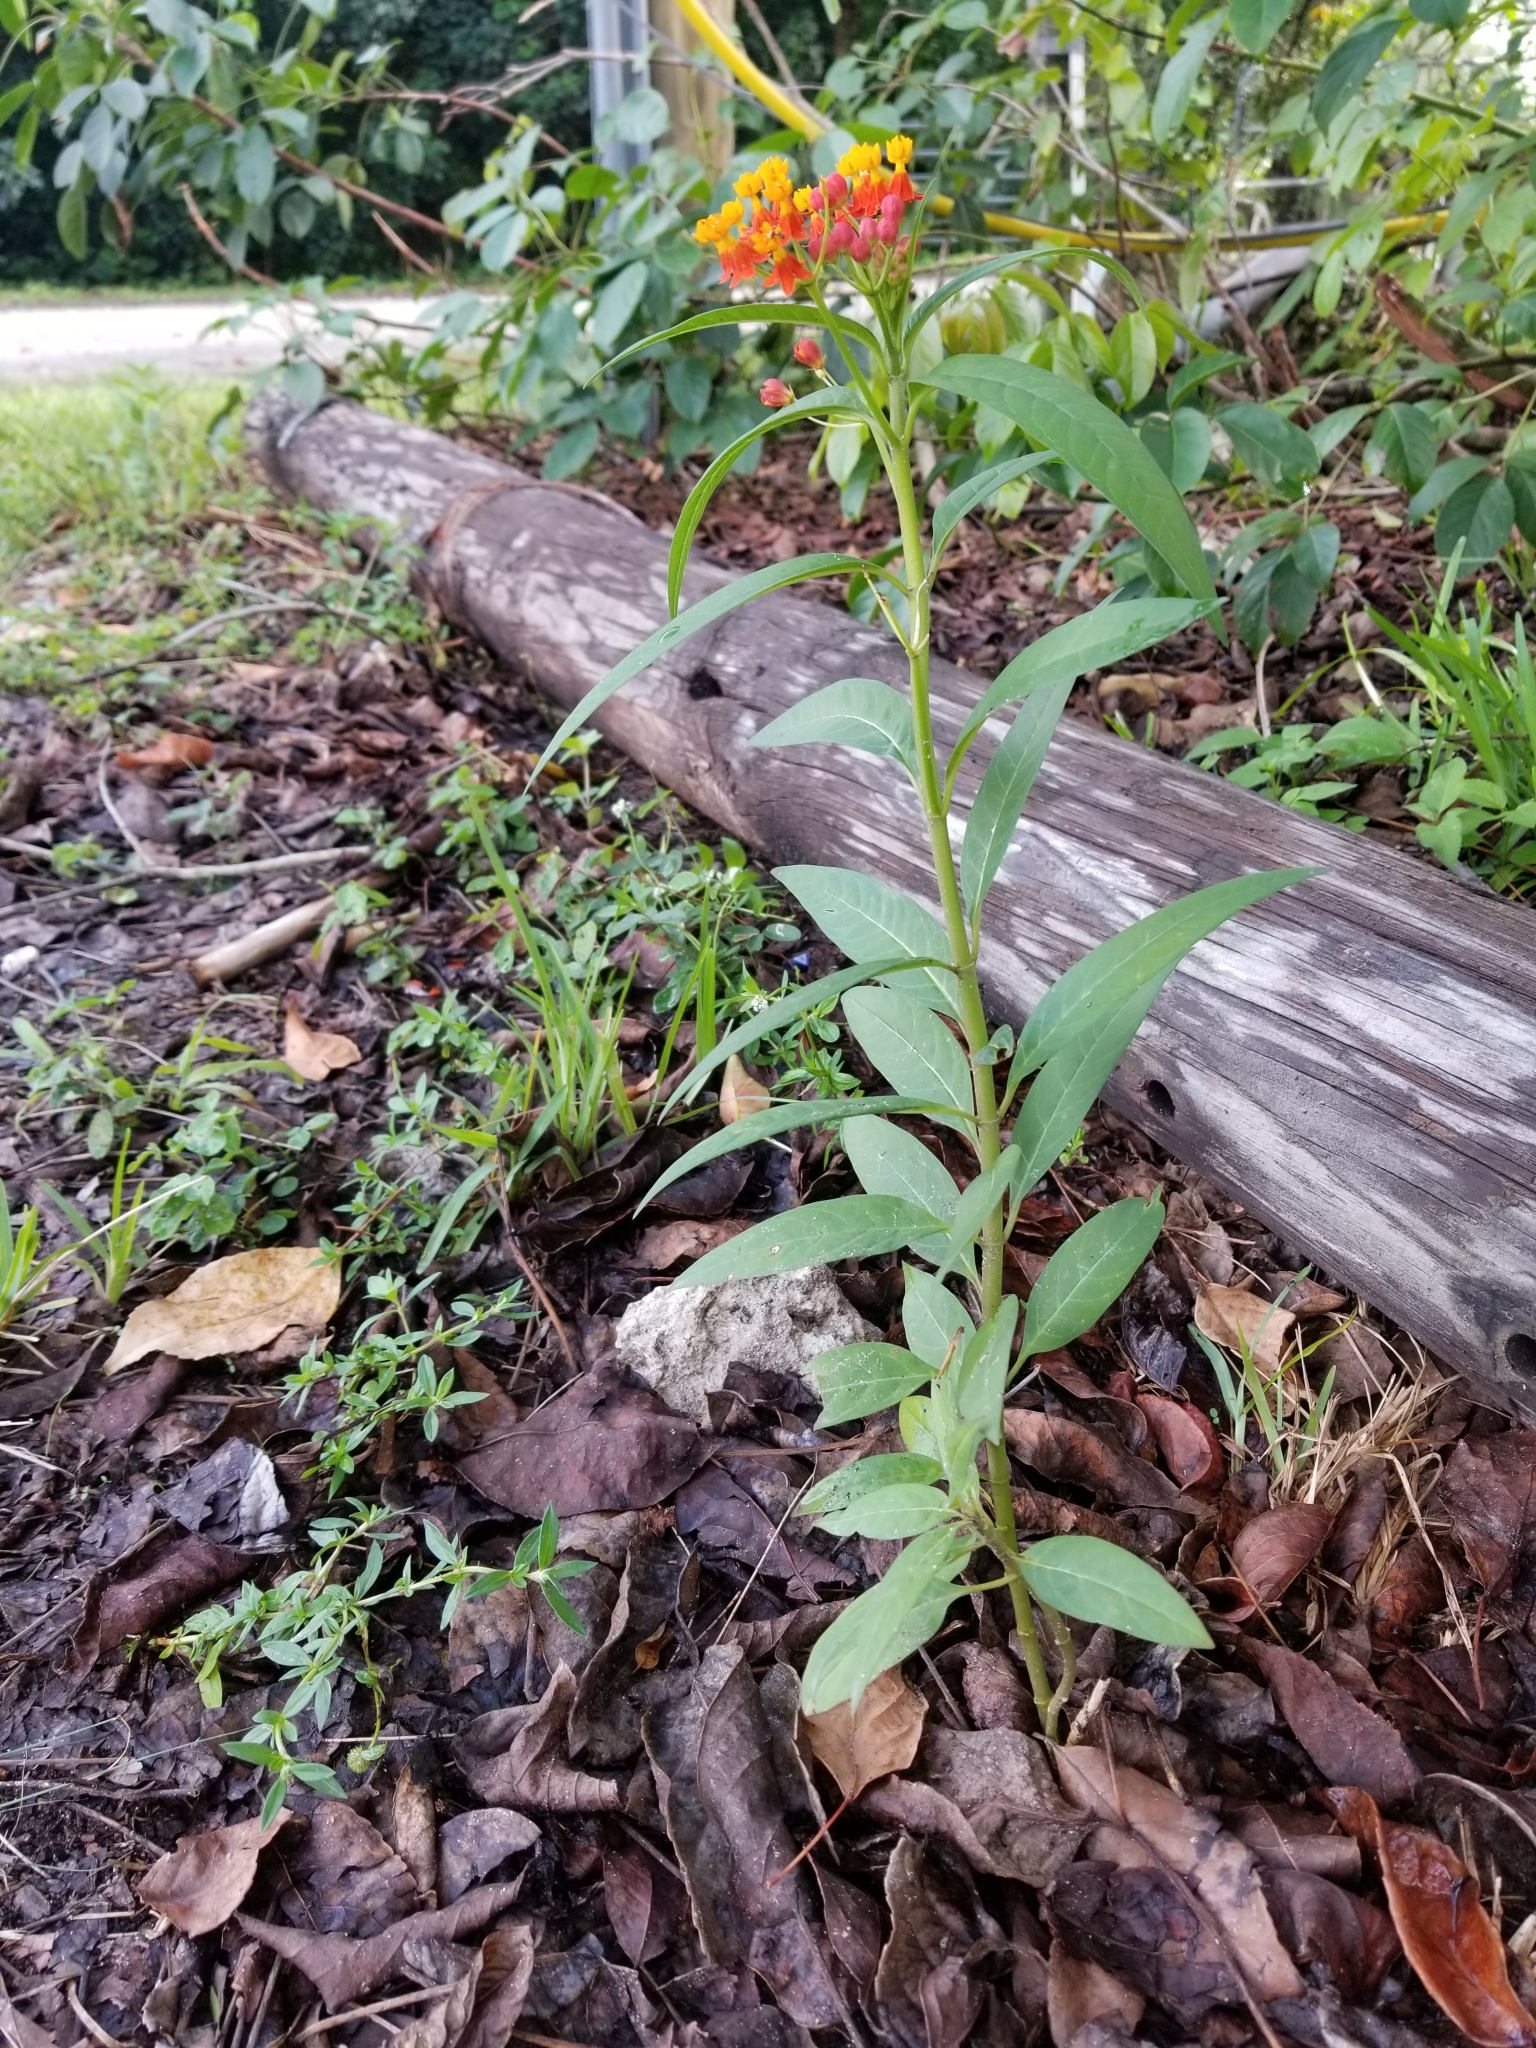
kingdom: Plantae
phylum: Tracheophyta
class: Magnoliopsida
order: Gentianales
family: Apocynaceae
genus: Asclepias
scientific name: Asclepias curassavica
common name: Bloodflower
